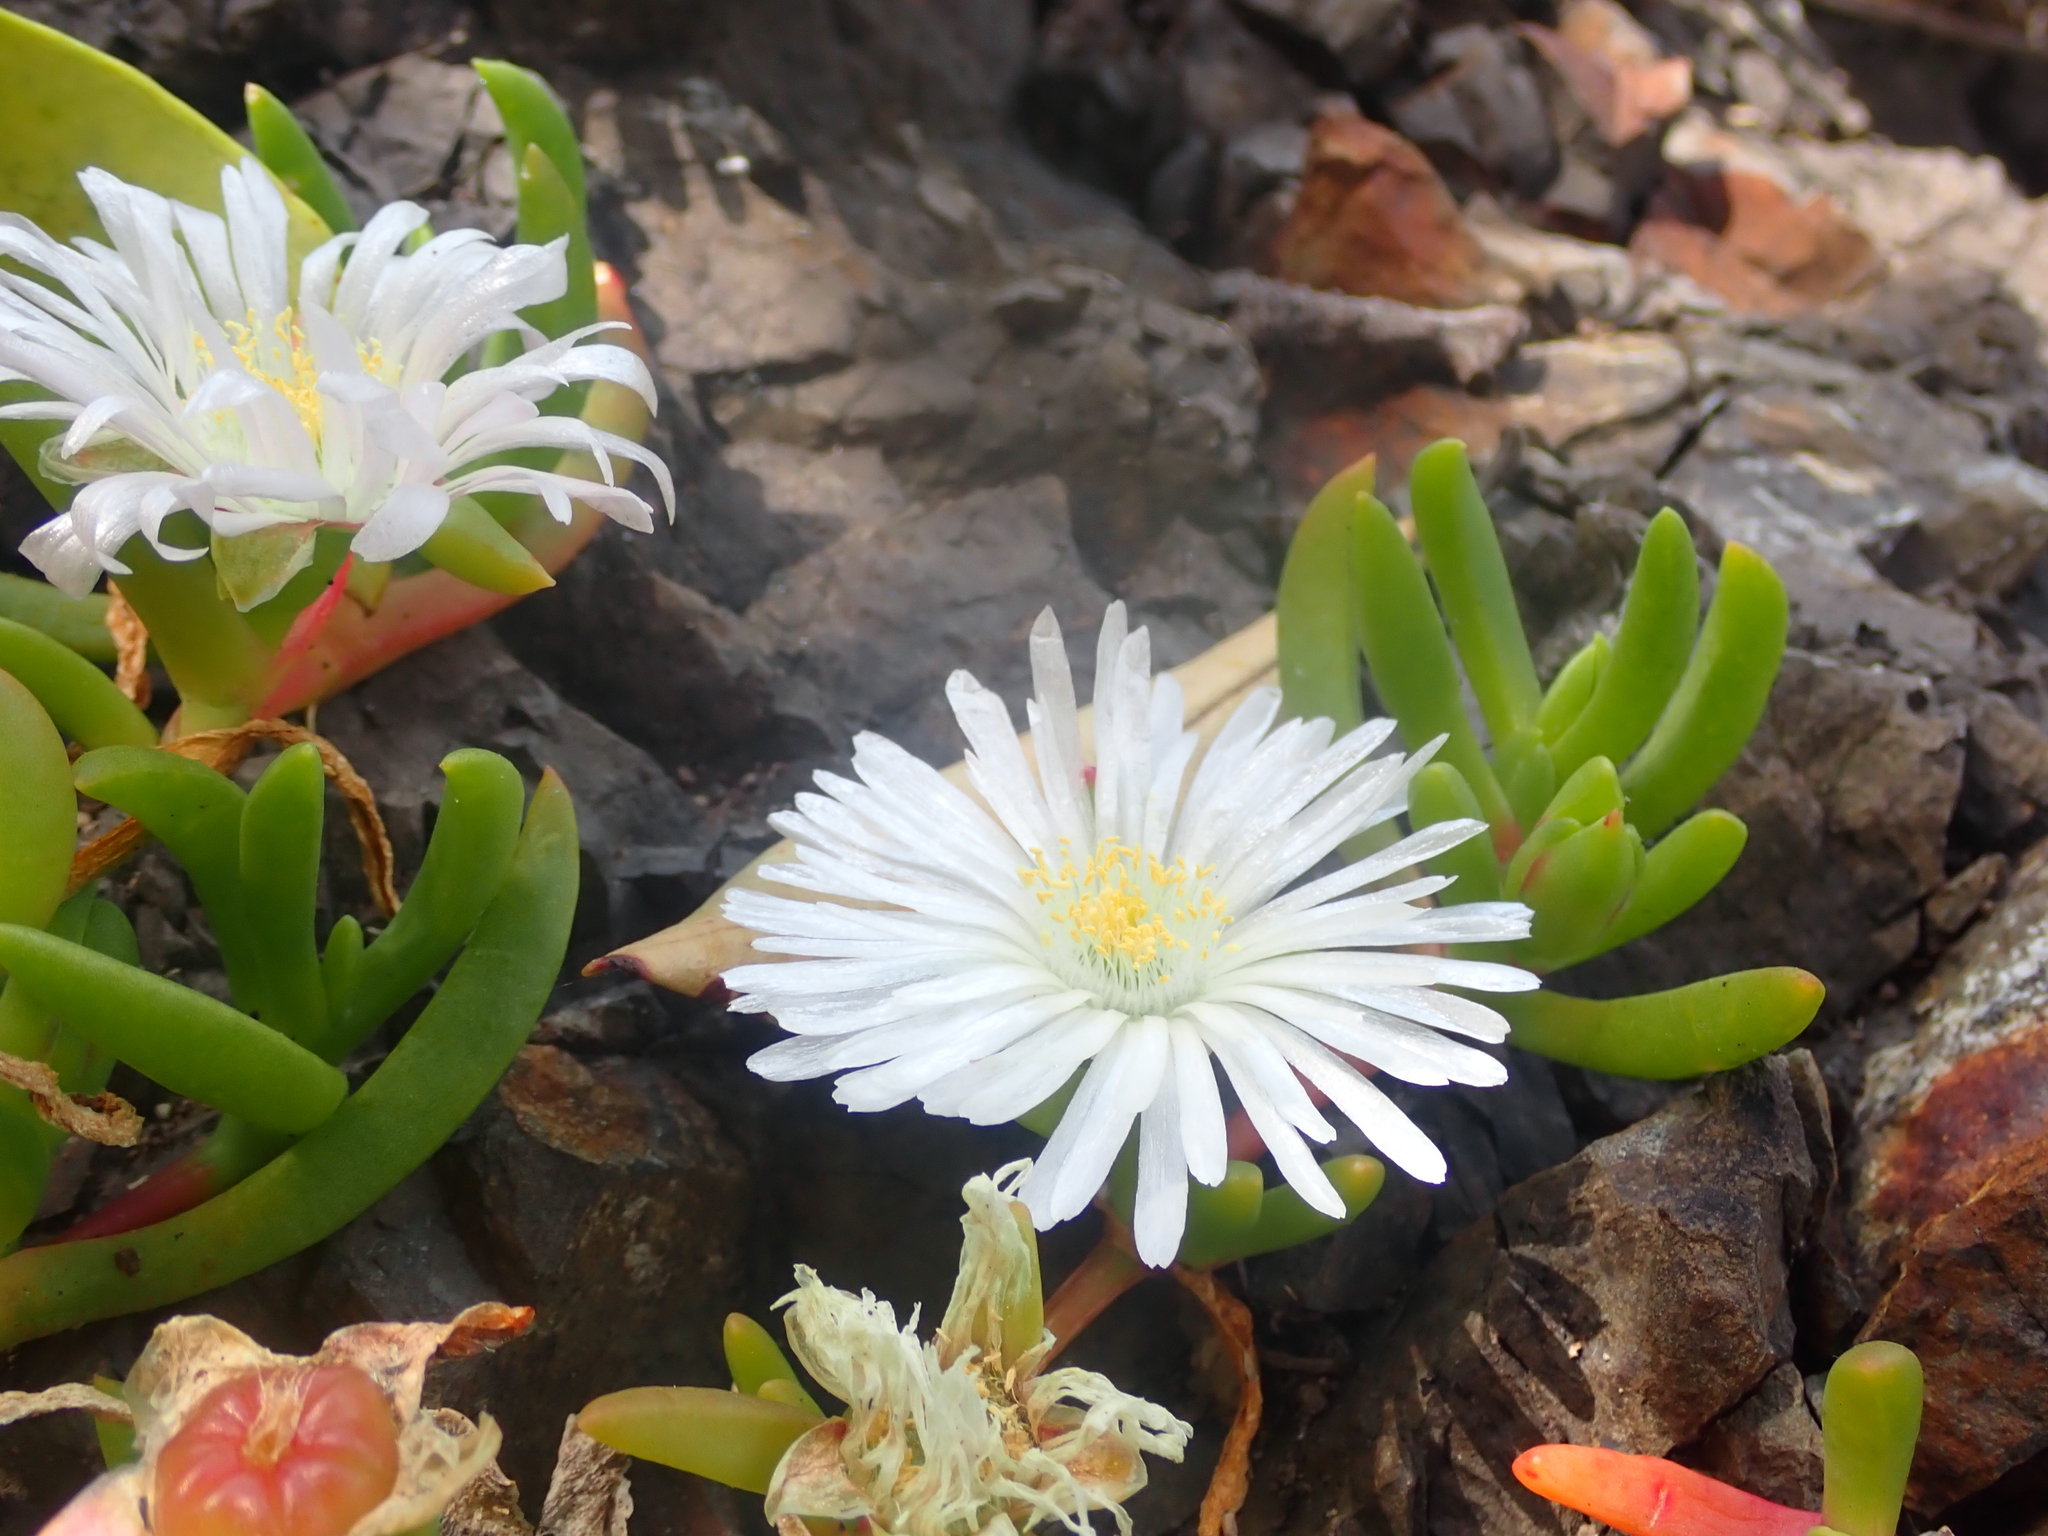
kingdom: Plantae
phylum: Tracheophyta
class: Magnoliopsida
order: Caryophyllales
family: Aizoaceae
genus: Disphyma
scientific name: Disphyma australe
